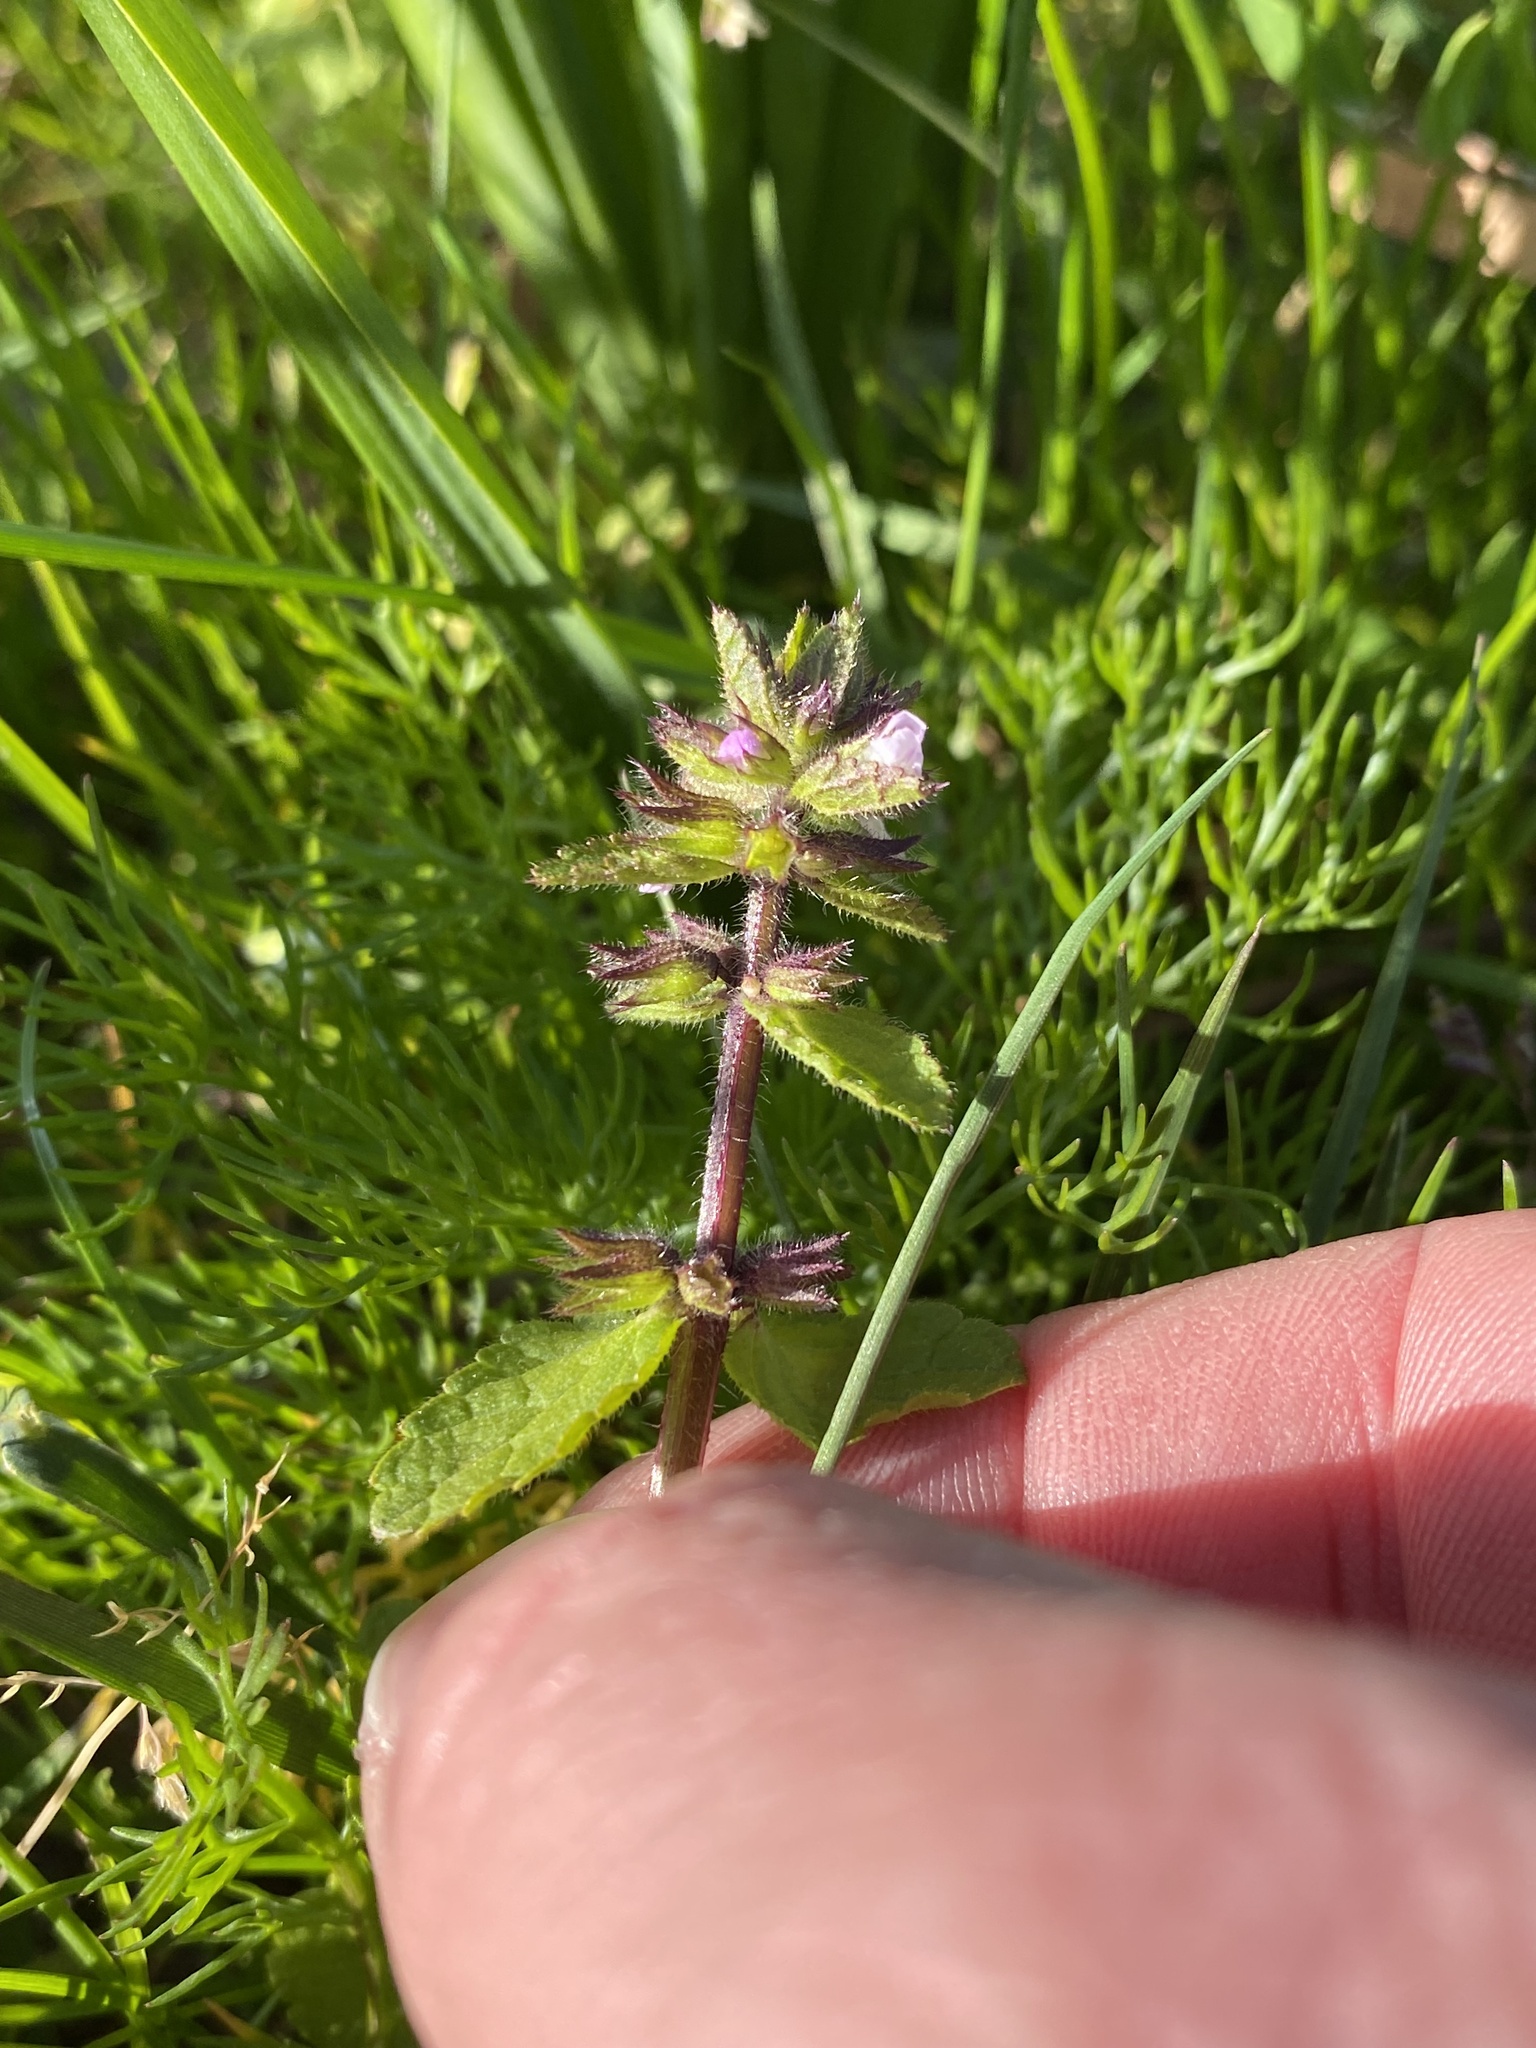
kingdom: Plantae
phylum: Tracheophyta
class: Magnoliopsida
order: Lamiales
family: Lamiaceae
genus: Stachys
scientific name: Stachys arvensis
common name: Field woundwort
